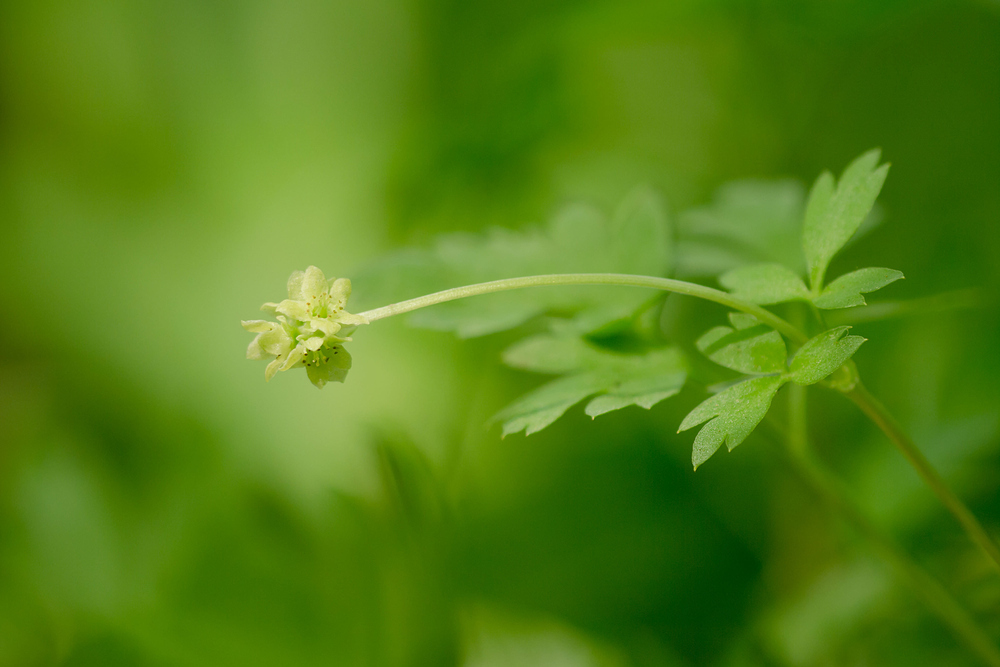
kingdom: Plantae
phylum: Tracheophyta
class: Magnoliopsida
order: Dipsacales
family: Viburnaceae
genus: Adoxa
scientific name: Adoxa moschatellina
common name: Moschatel
